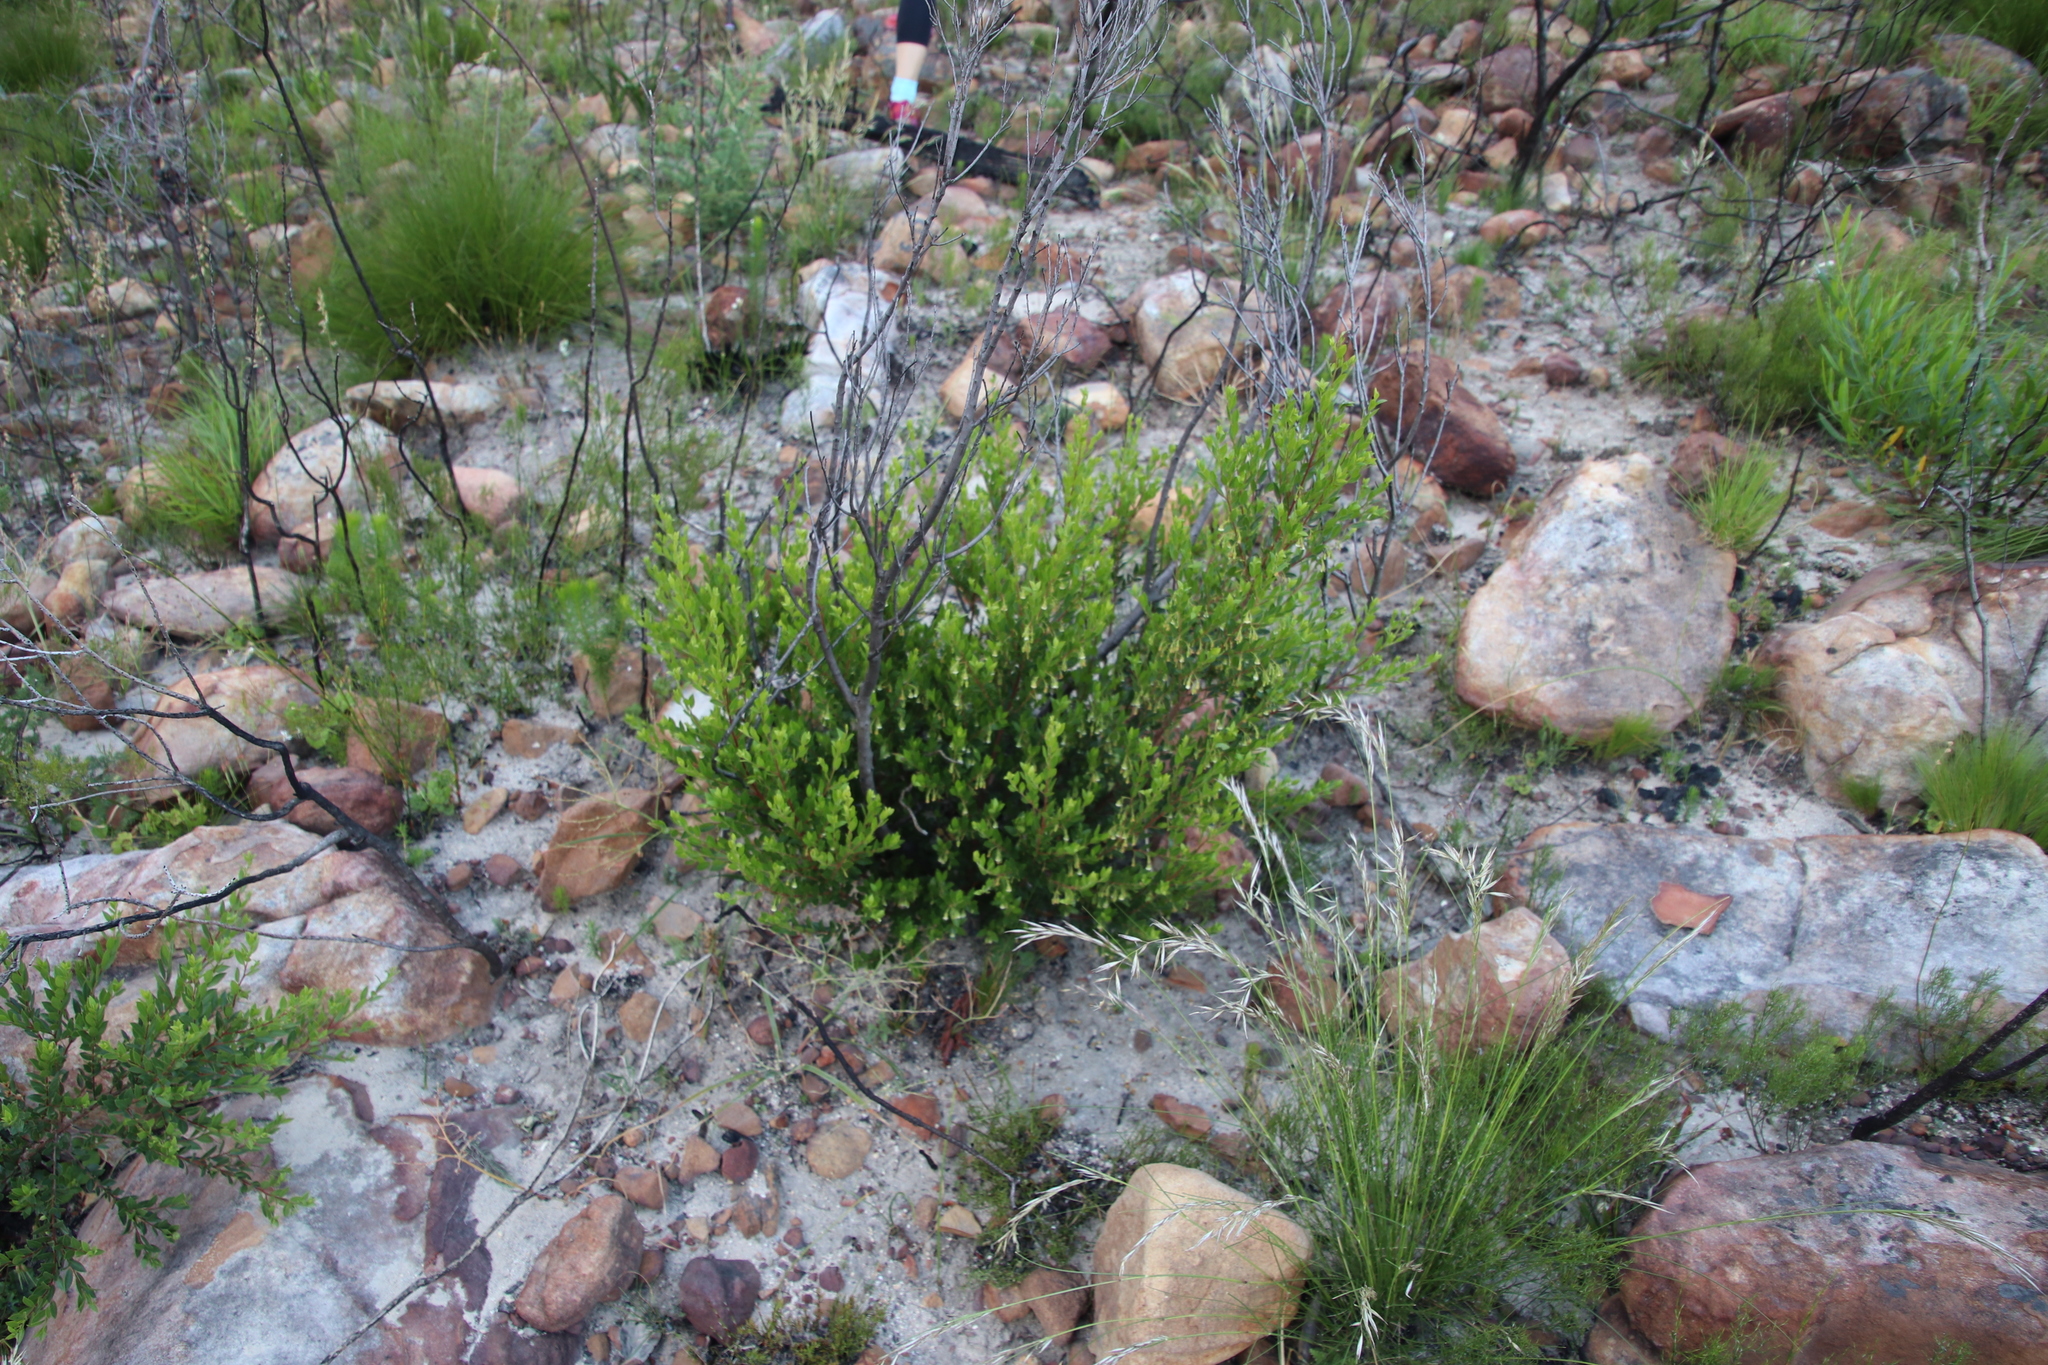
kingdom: Plantae
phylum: Tracheophyta
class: Magnoliopsida
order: Ericales
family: Ebenaceae
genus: Diospyros
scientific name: Diospyros glabra
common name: Fynbos star apple
